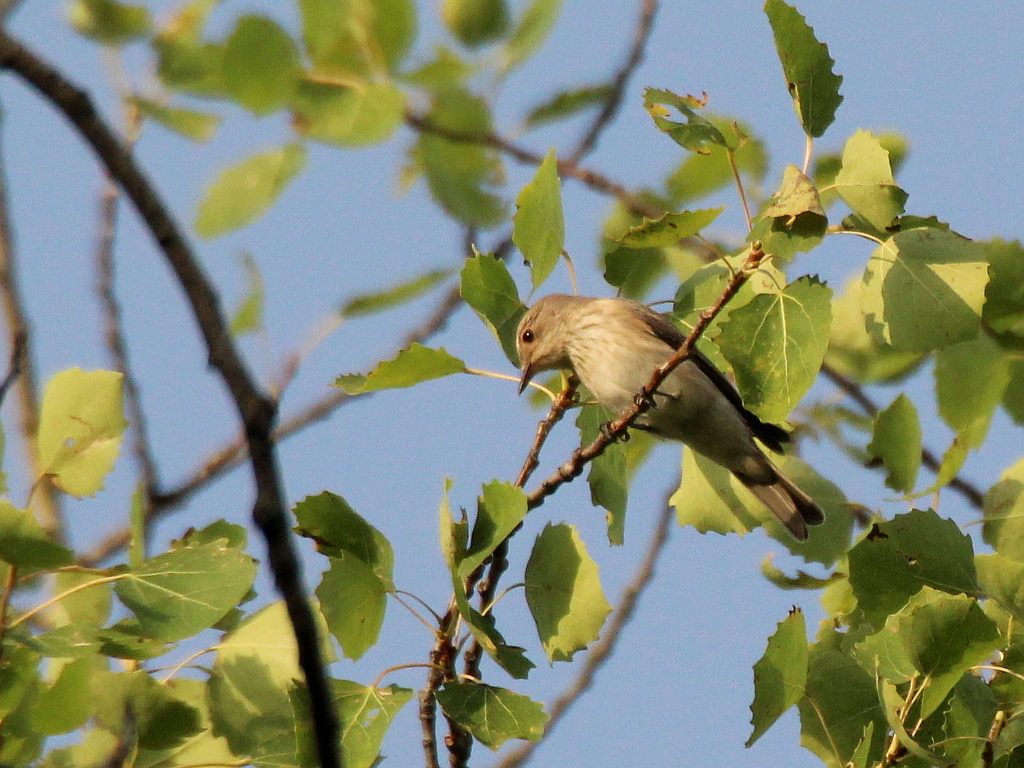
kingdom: Animalia
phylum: Chordata
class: Aves
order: Passeriformes
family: Muscicapidae
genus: Muscicapa
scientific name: Muscicapa striata
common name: Spotted flycatcher
